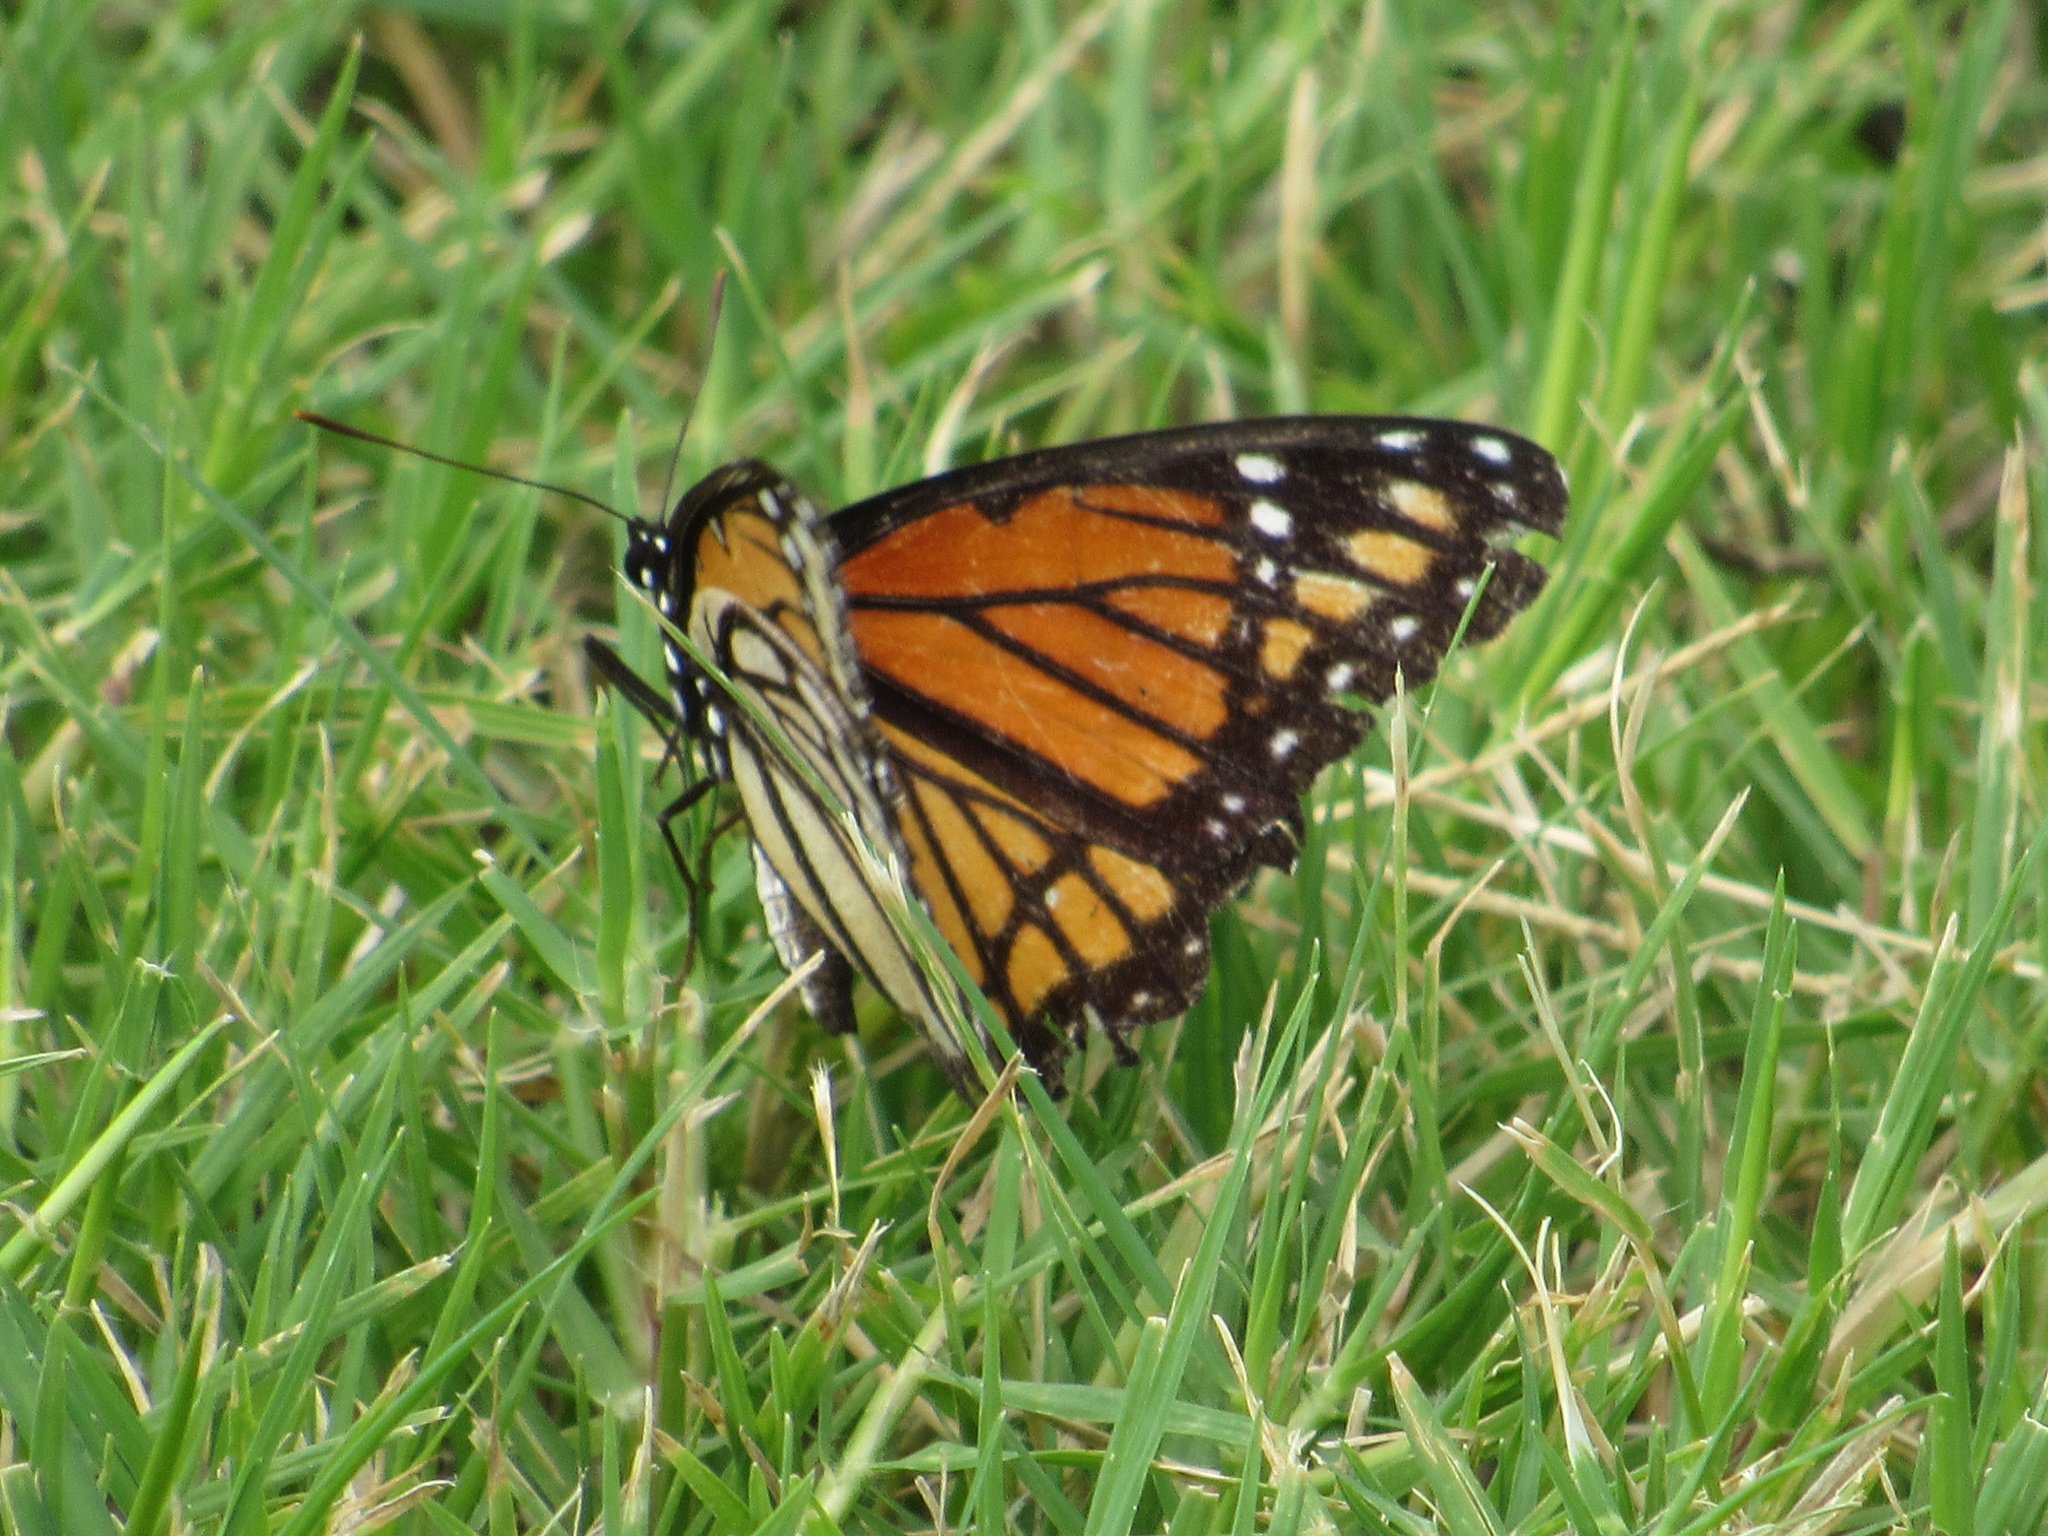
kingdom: Animalia
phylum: Arthropoda
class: Insecta
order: Lepidoptera
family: Nymphalidae
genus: Limenitis
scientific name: Limenitis archippus
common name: Viceroy
